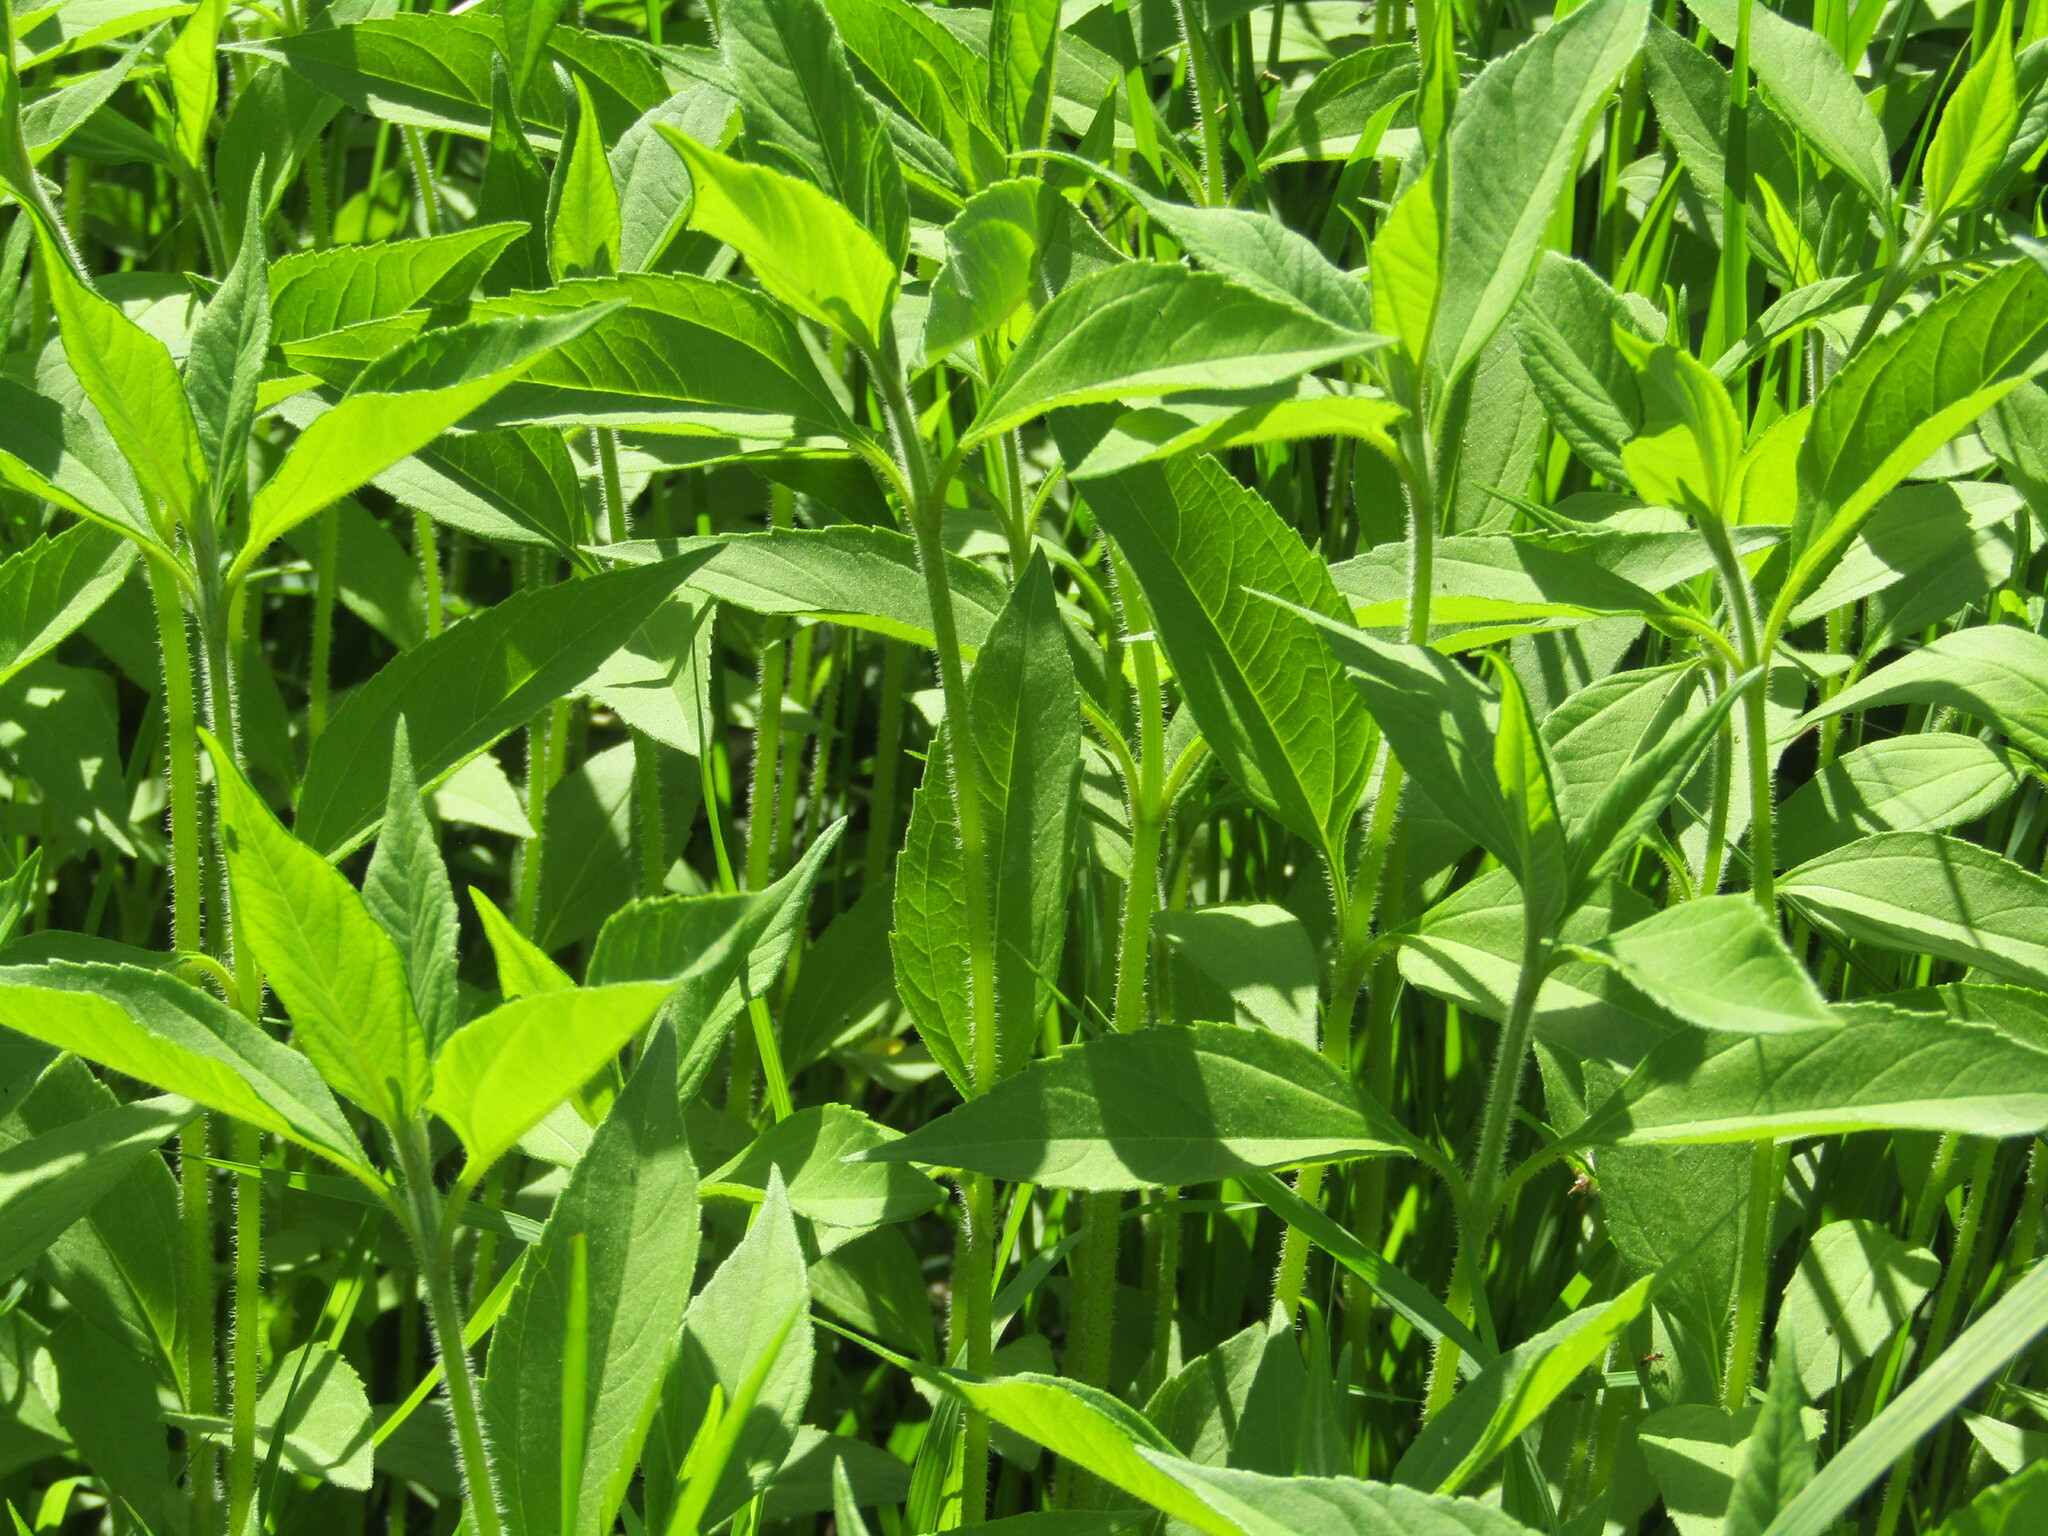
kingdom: Plantae
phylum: Tracheophyta
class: Magnoliopsida
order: Asterales
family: Asteraceae
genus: Helianthus
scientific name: Helianthus tuberosus
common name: Jerusalem artichoke
